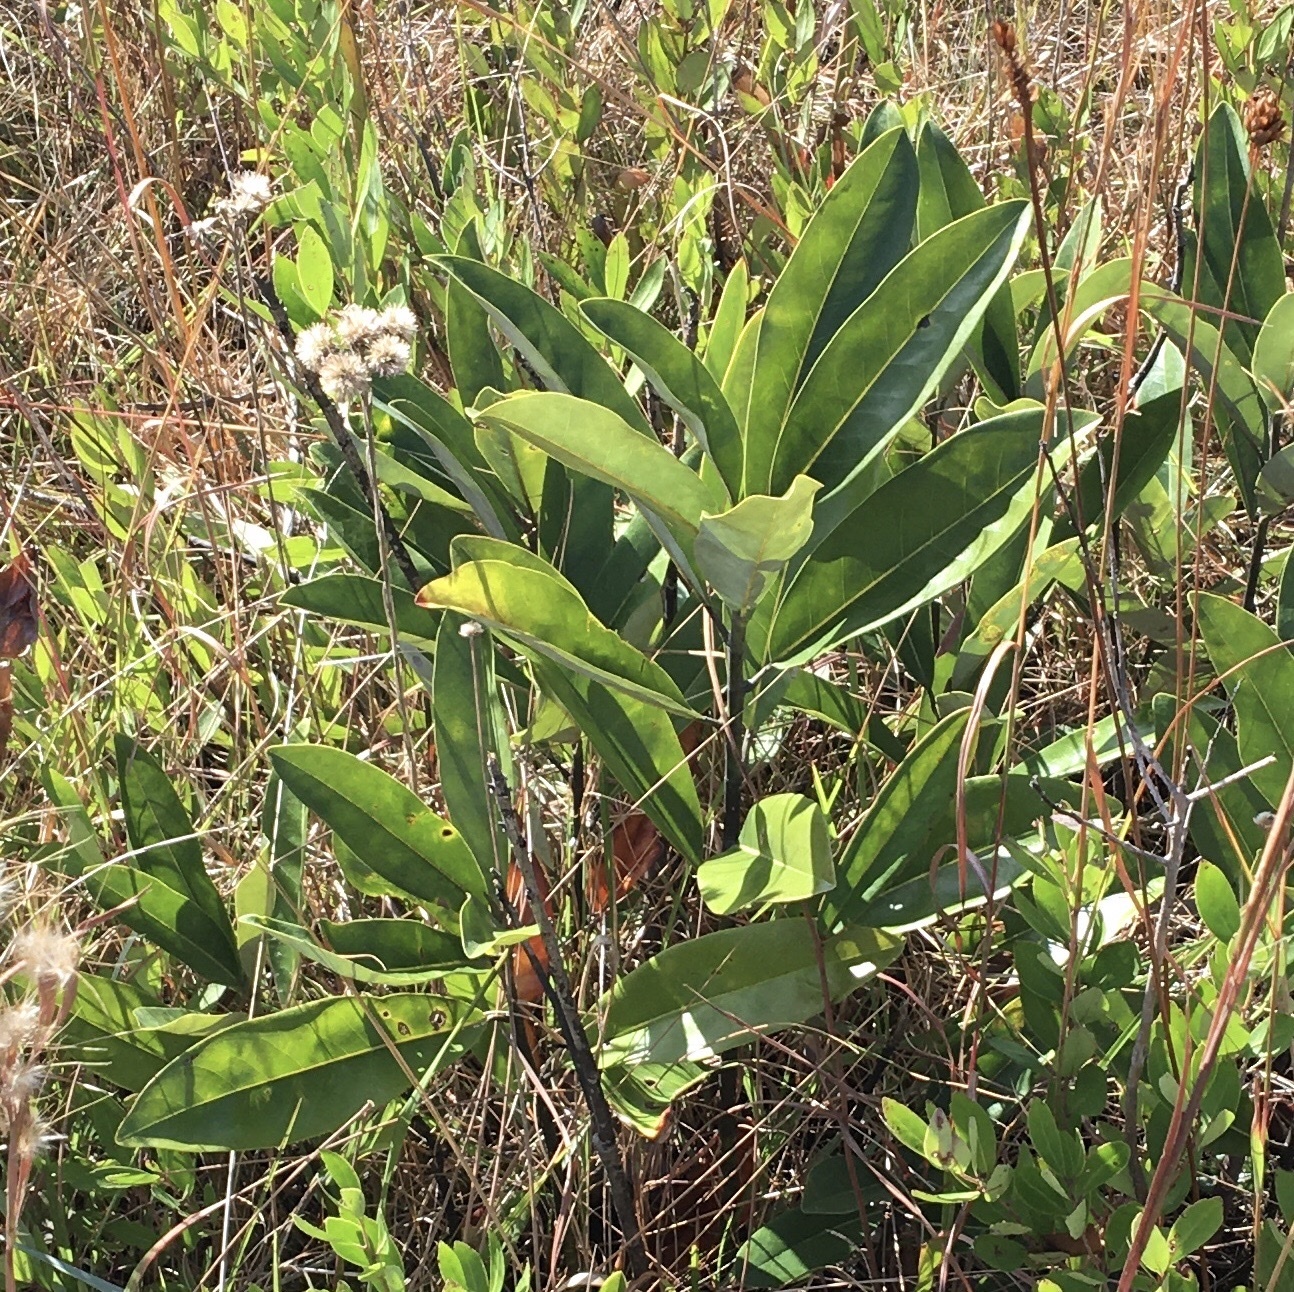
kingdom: Plantae
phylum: Tracheophyta
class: Magnoliopsida
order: Magnoliales
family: Magnoliaceae
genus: Magnolia
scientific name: Magnolia virginiana
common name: Swamp bay
